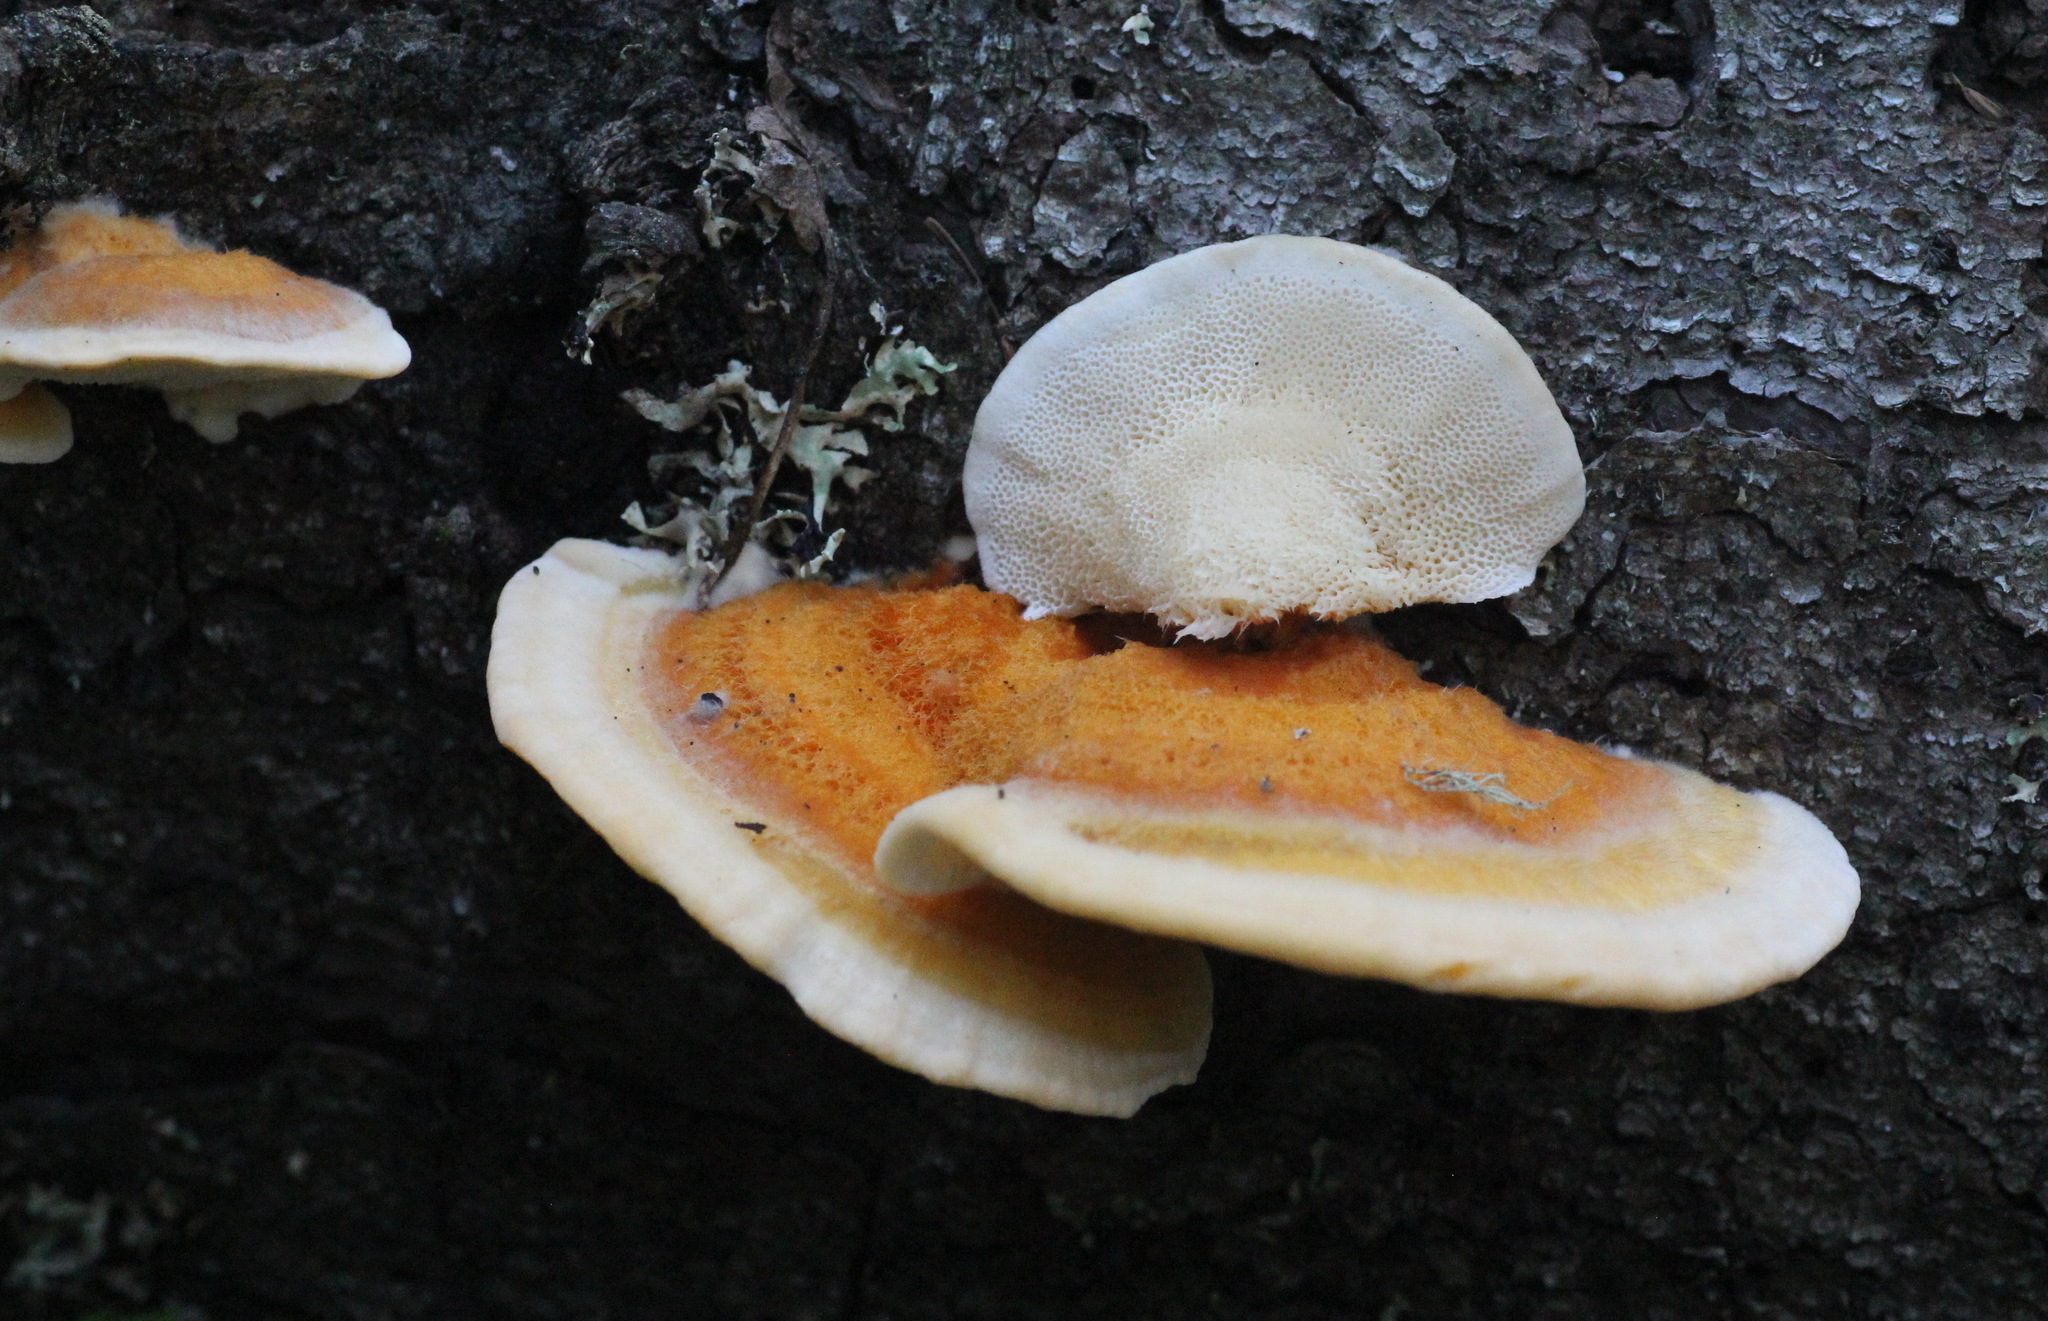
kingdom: Fungi
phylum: Basidiomycota
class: Agaricomycetes
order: Polyporales
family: Pycnoporellaceae
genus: Pycnoporellus
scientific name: Pycnoporellus fulgens
